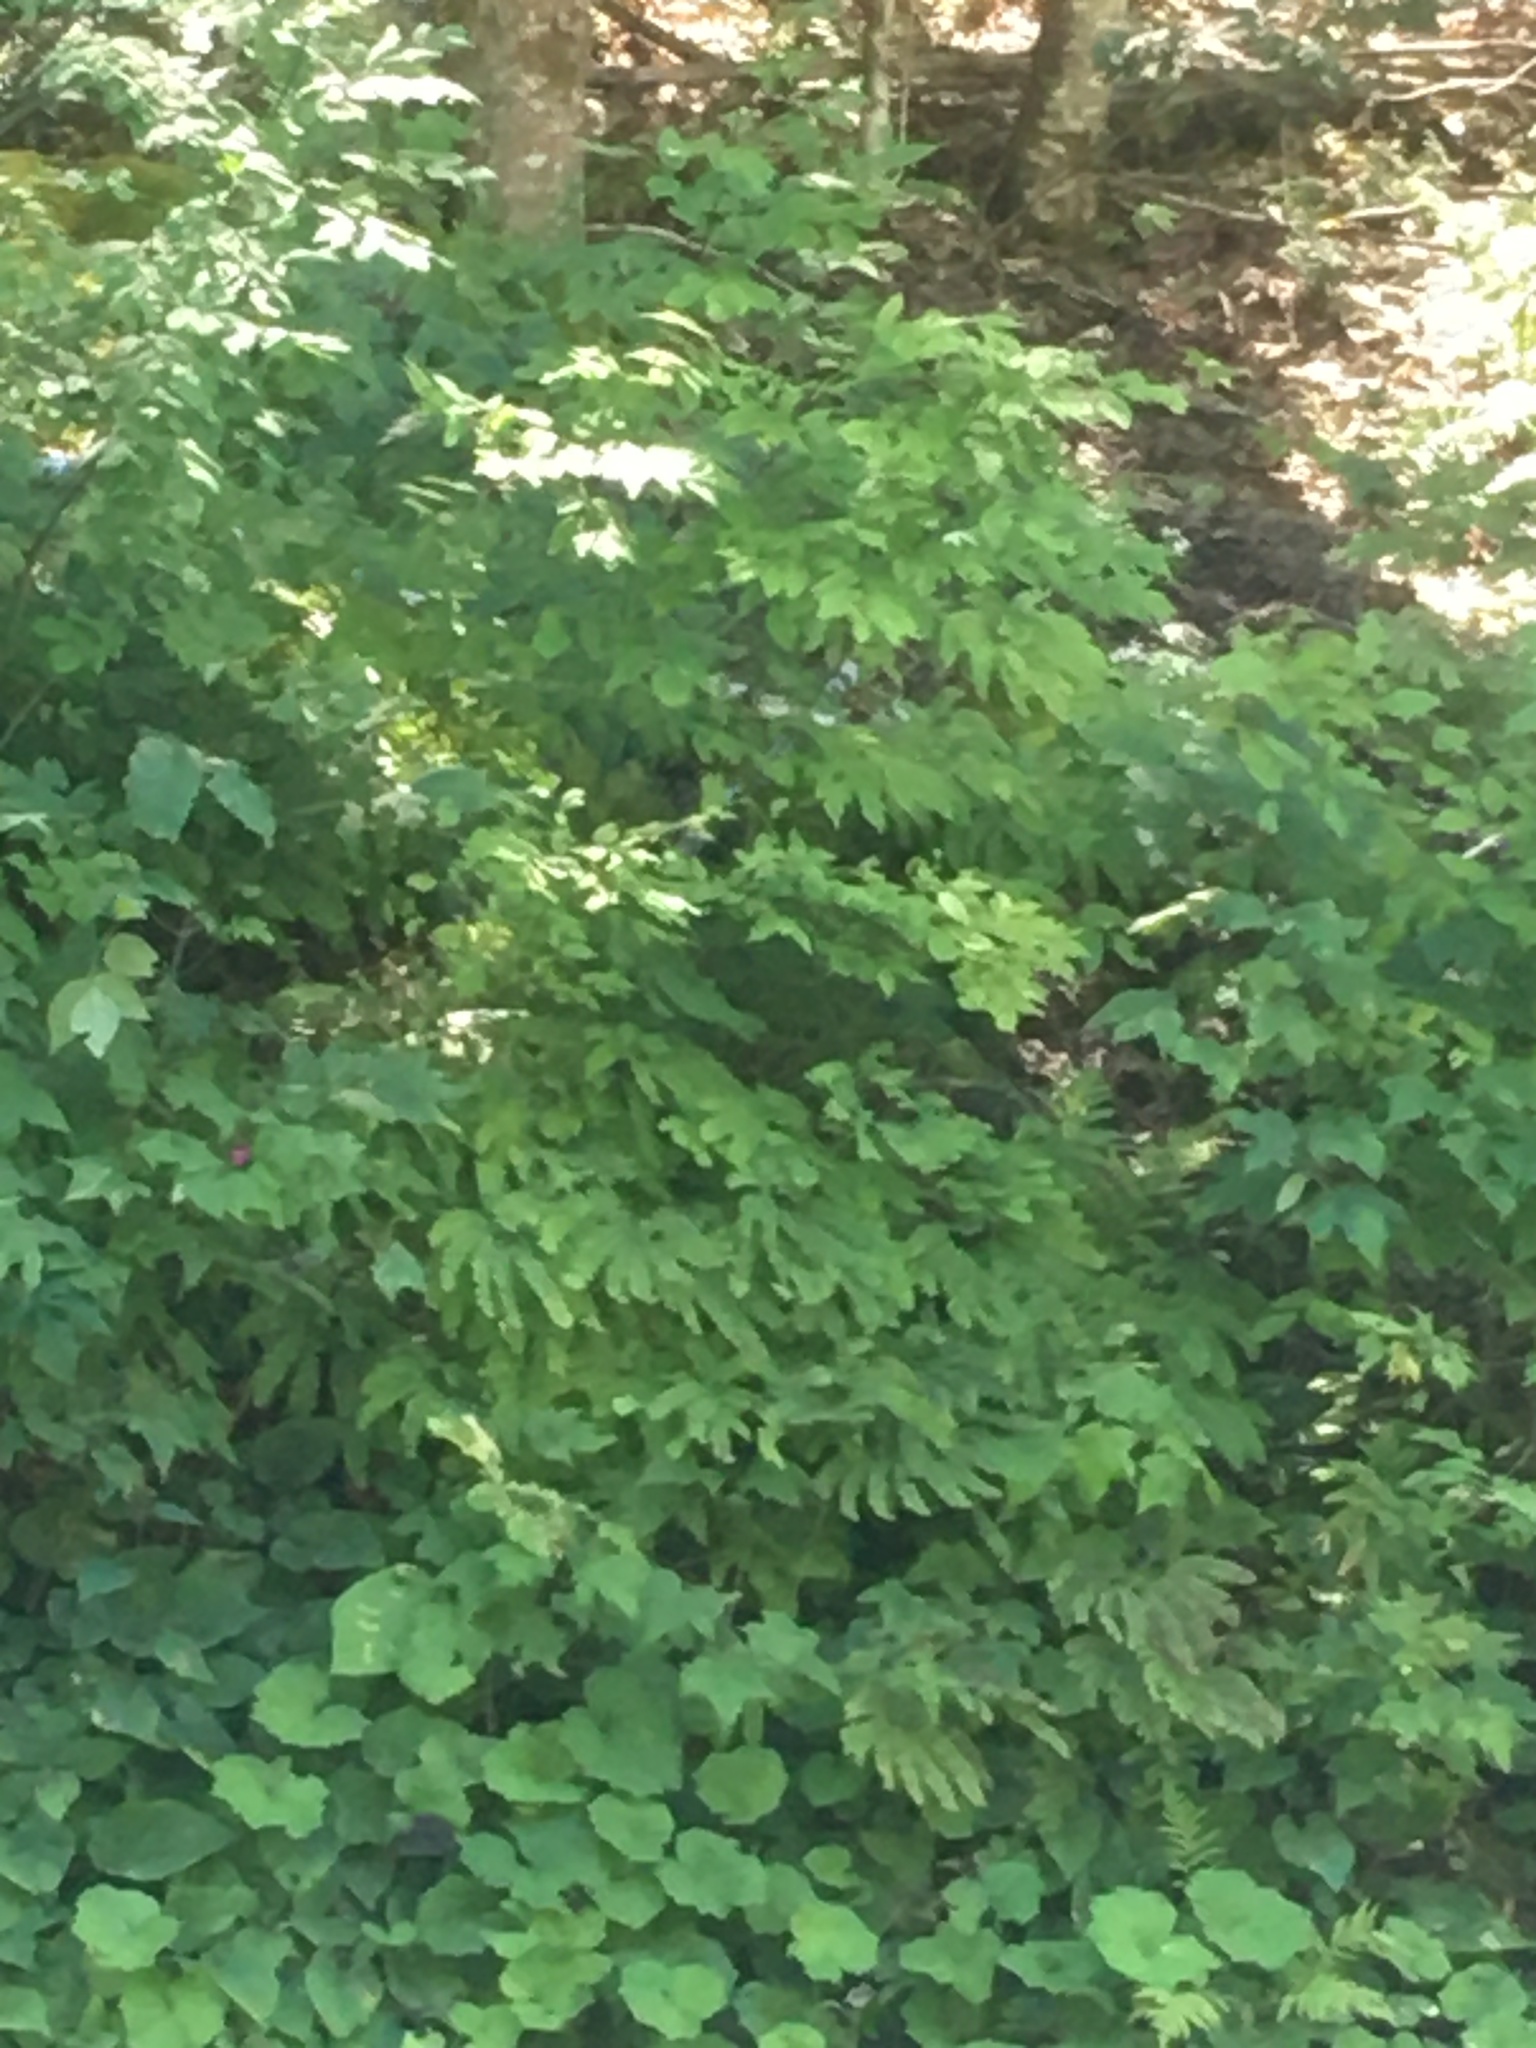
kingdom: Plantae
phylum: Tracheophyta
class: Polypodiopsida
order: Polypodiales
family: Pteridaceae
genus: Adiantum
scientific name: Adiantum pedatum
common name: Five-finger fern
